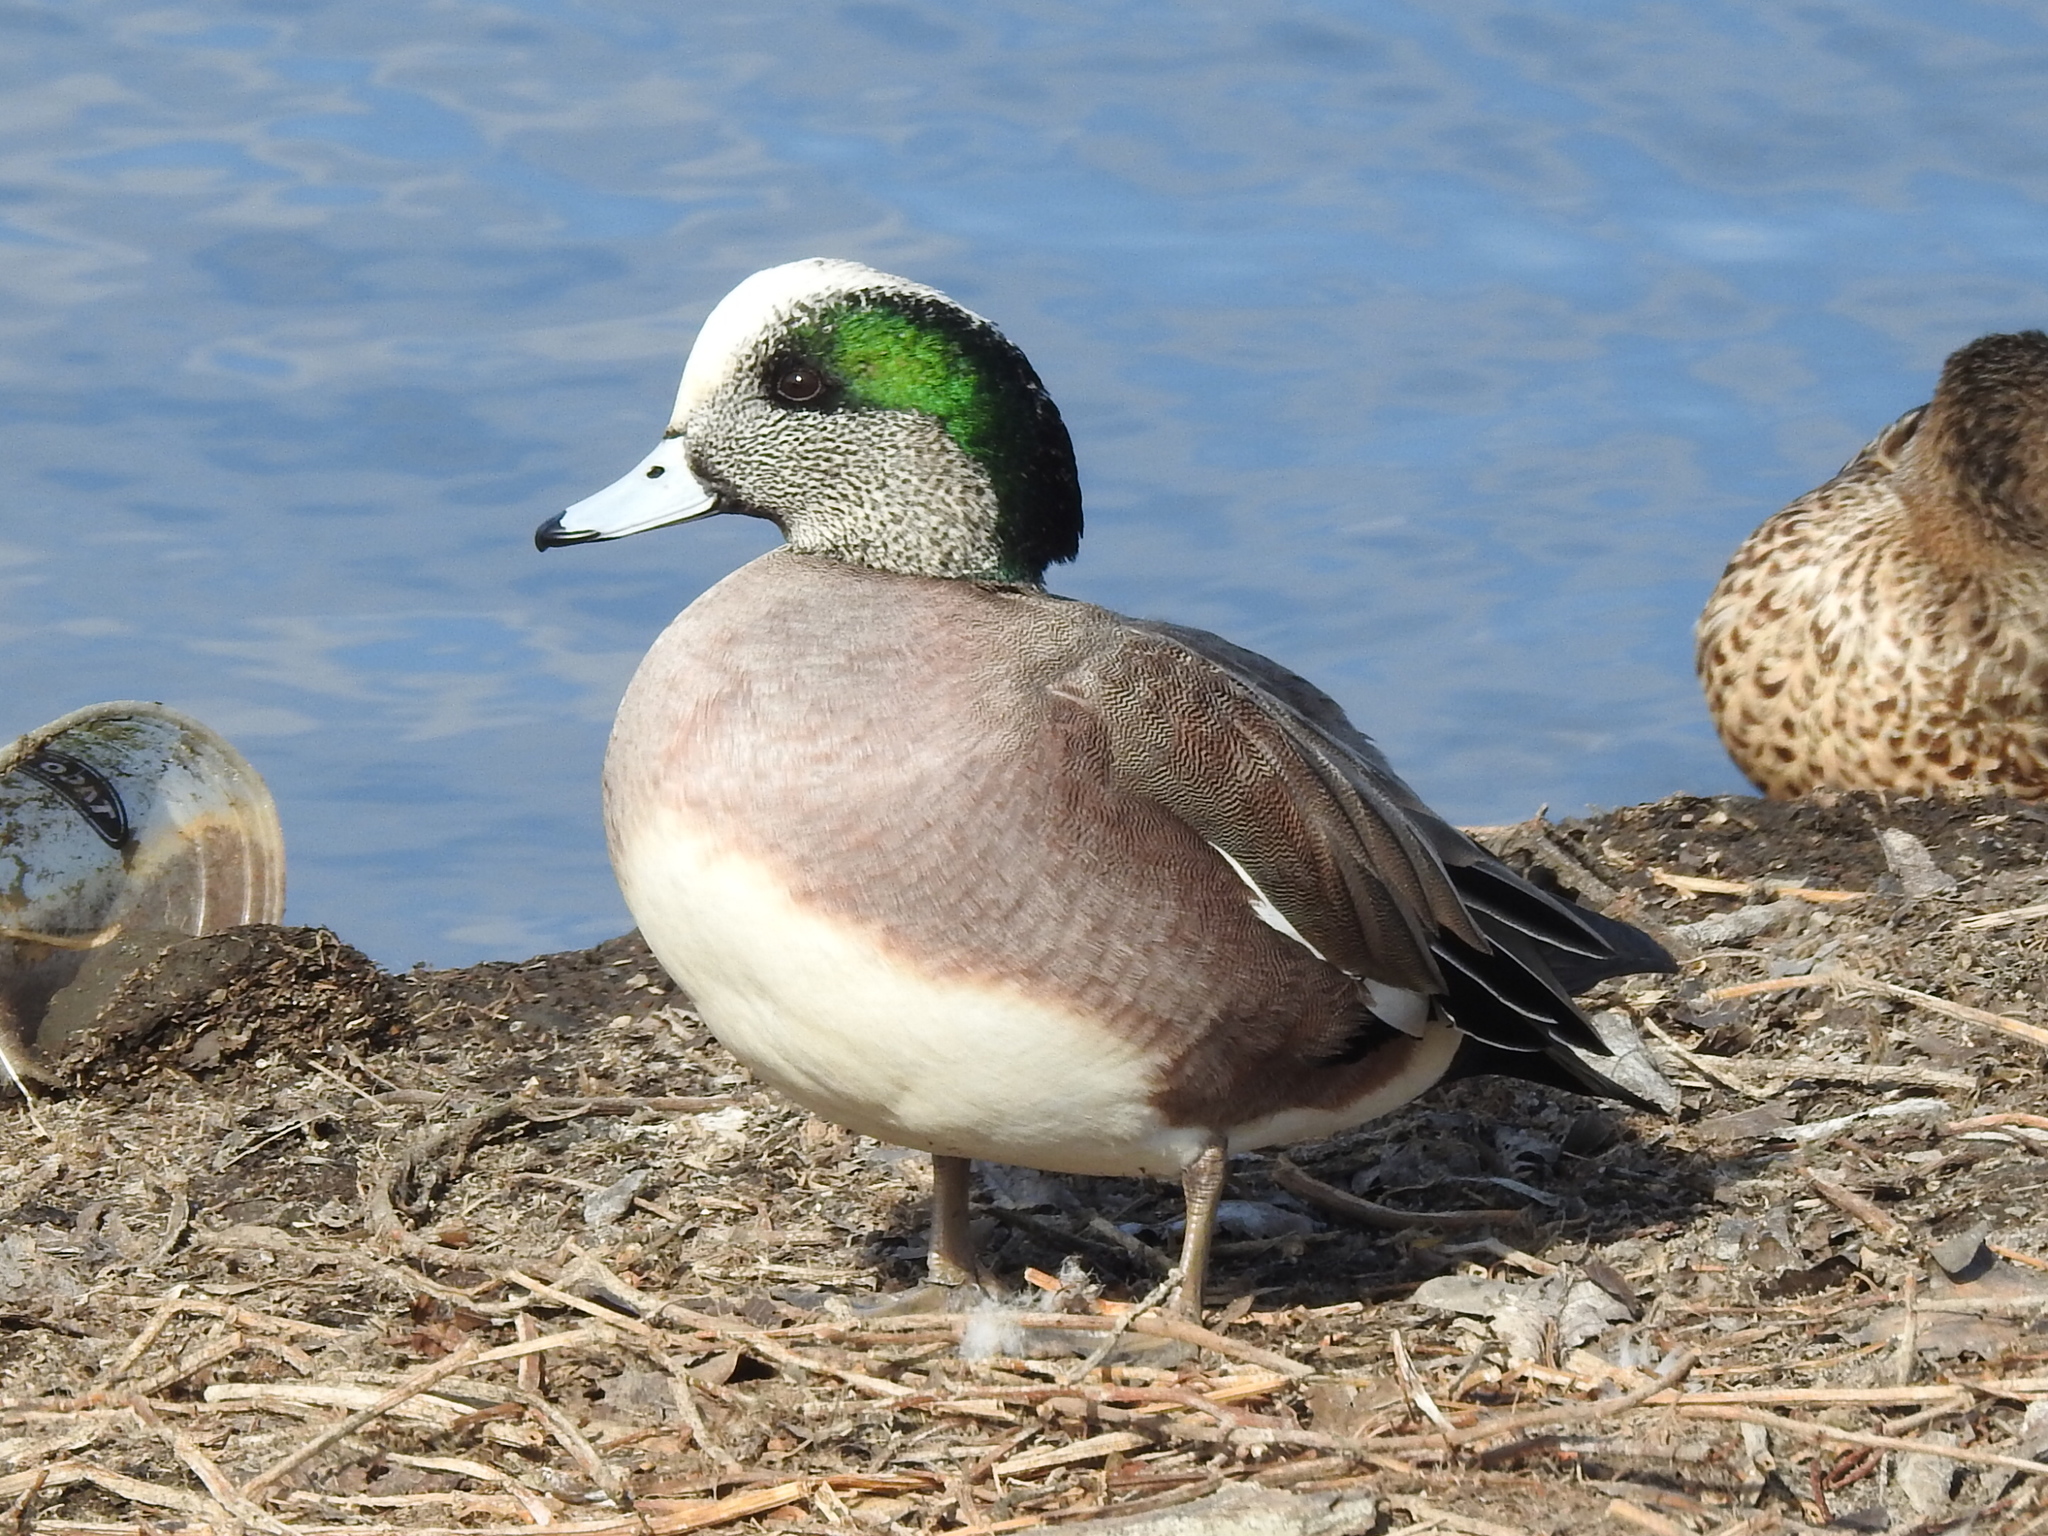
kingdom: Animalia
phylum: Chordata
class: Aves
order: Anseriformes
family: Anatidae
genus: Mareca
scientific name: Mareca americana
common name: American wigeon
